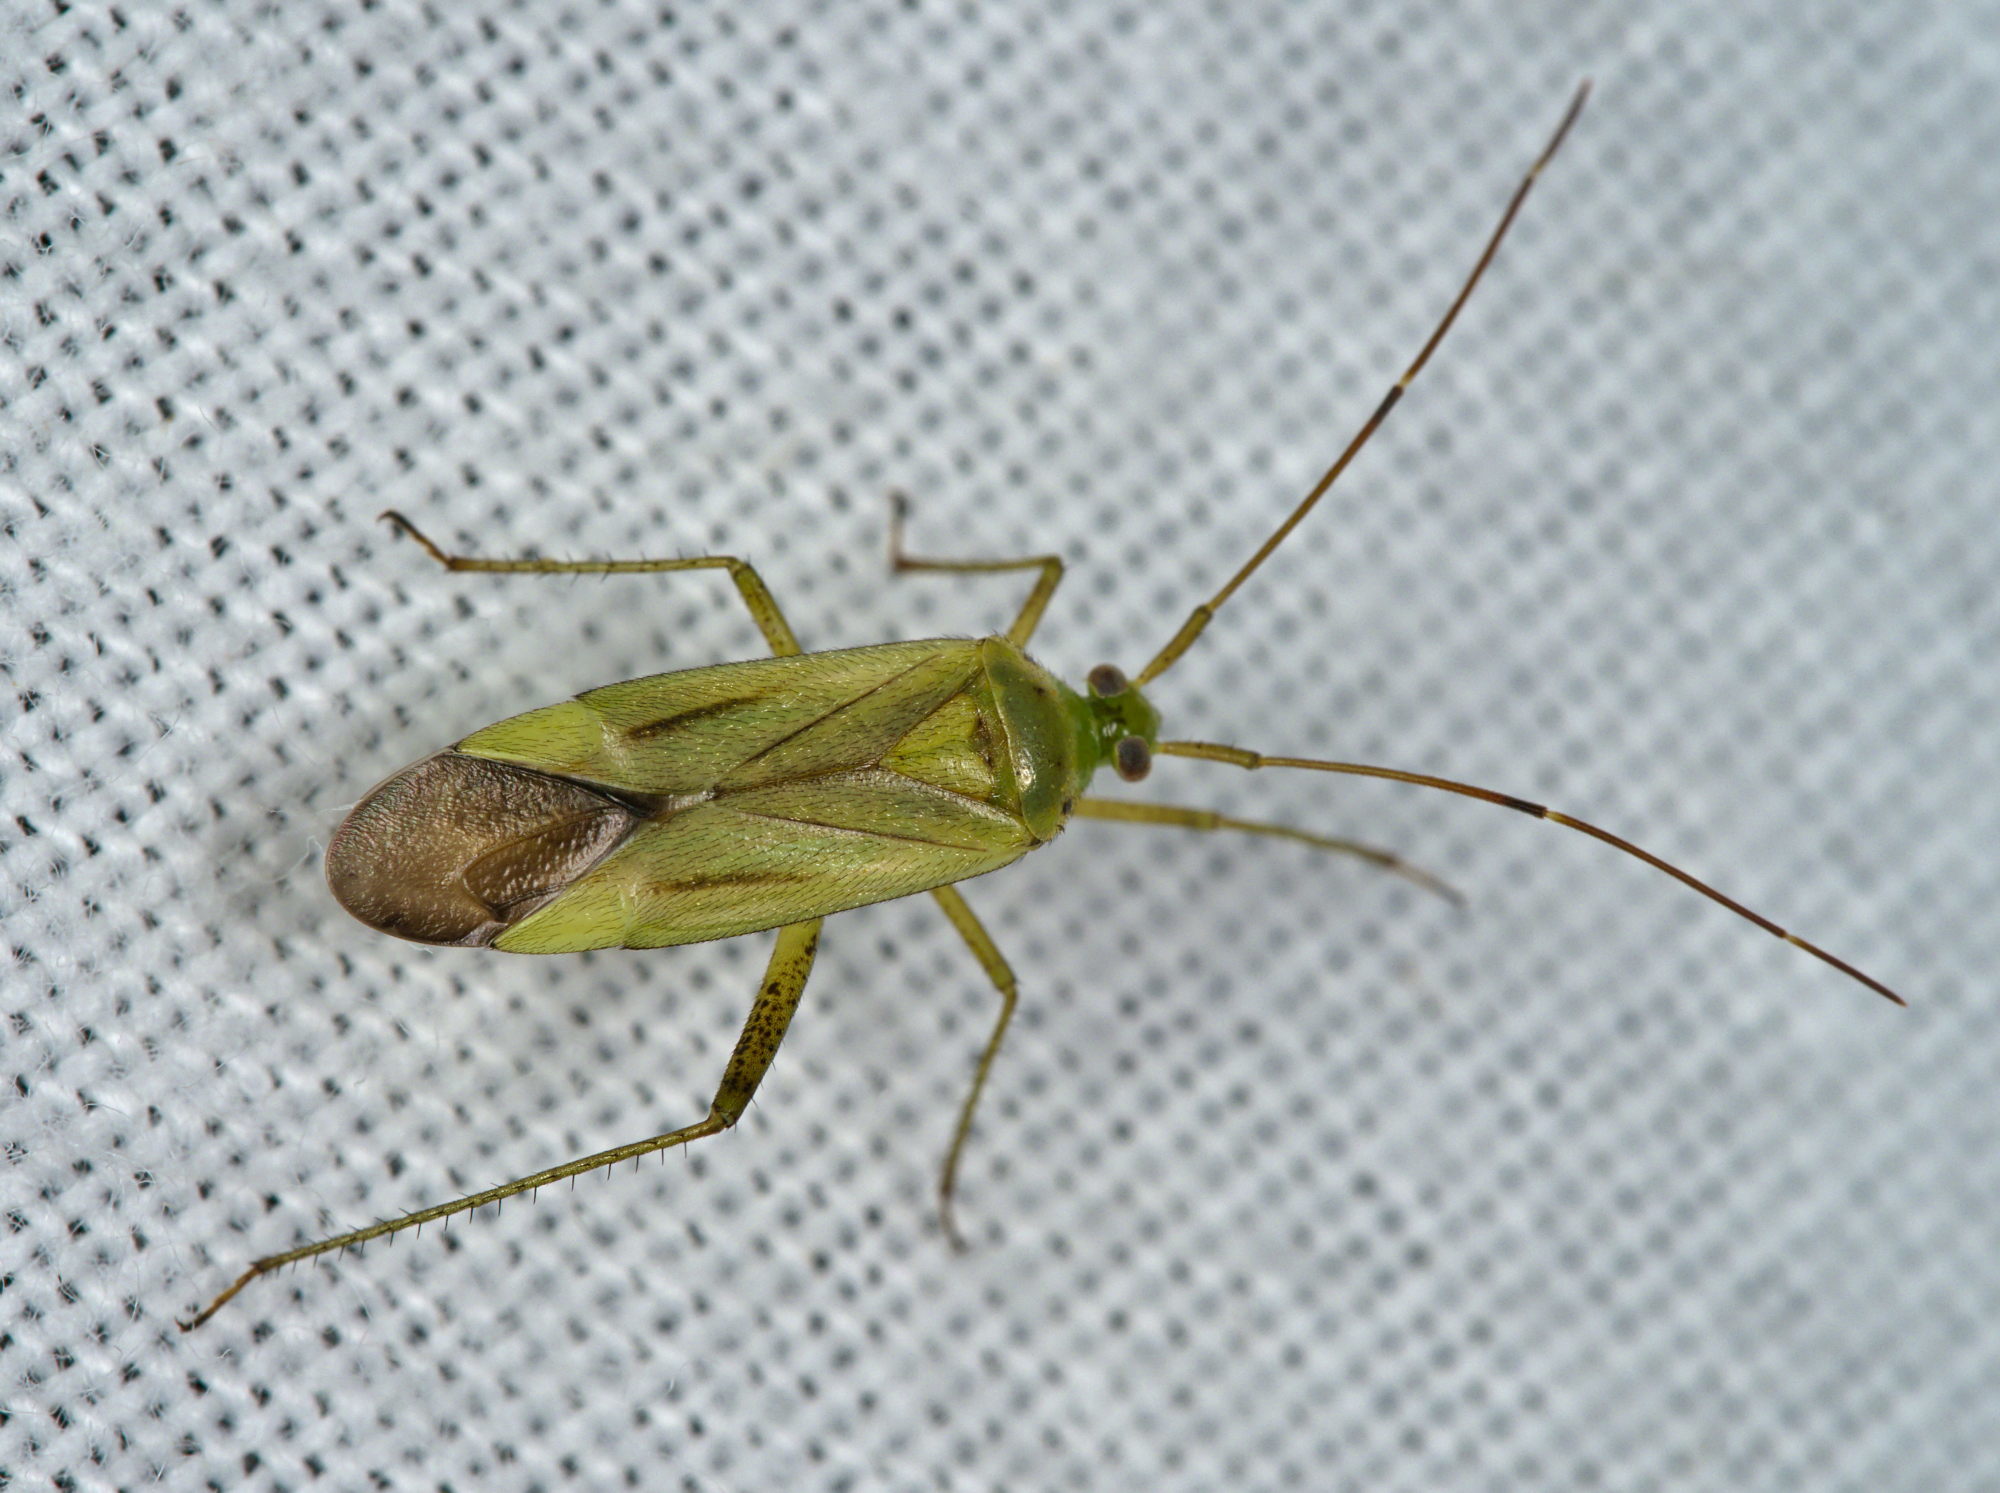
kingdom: Animalia
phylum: Arthropoda
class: Insecta
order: Hemiptera
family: Miridae
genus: Adelphocoris
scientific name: Adelphocoris quadripunctatus
